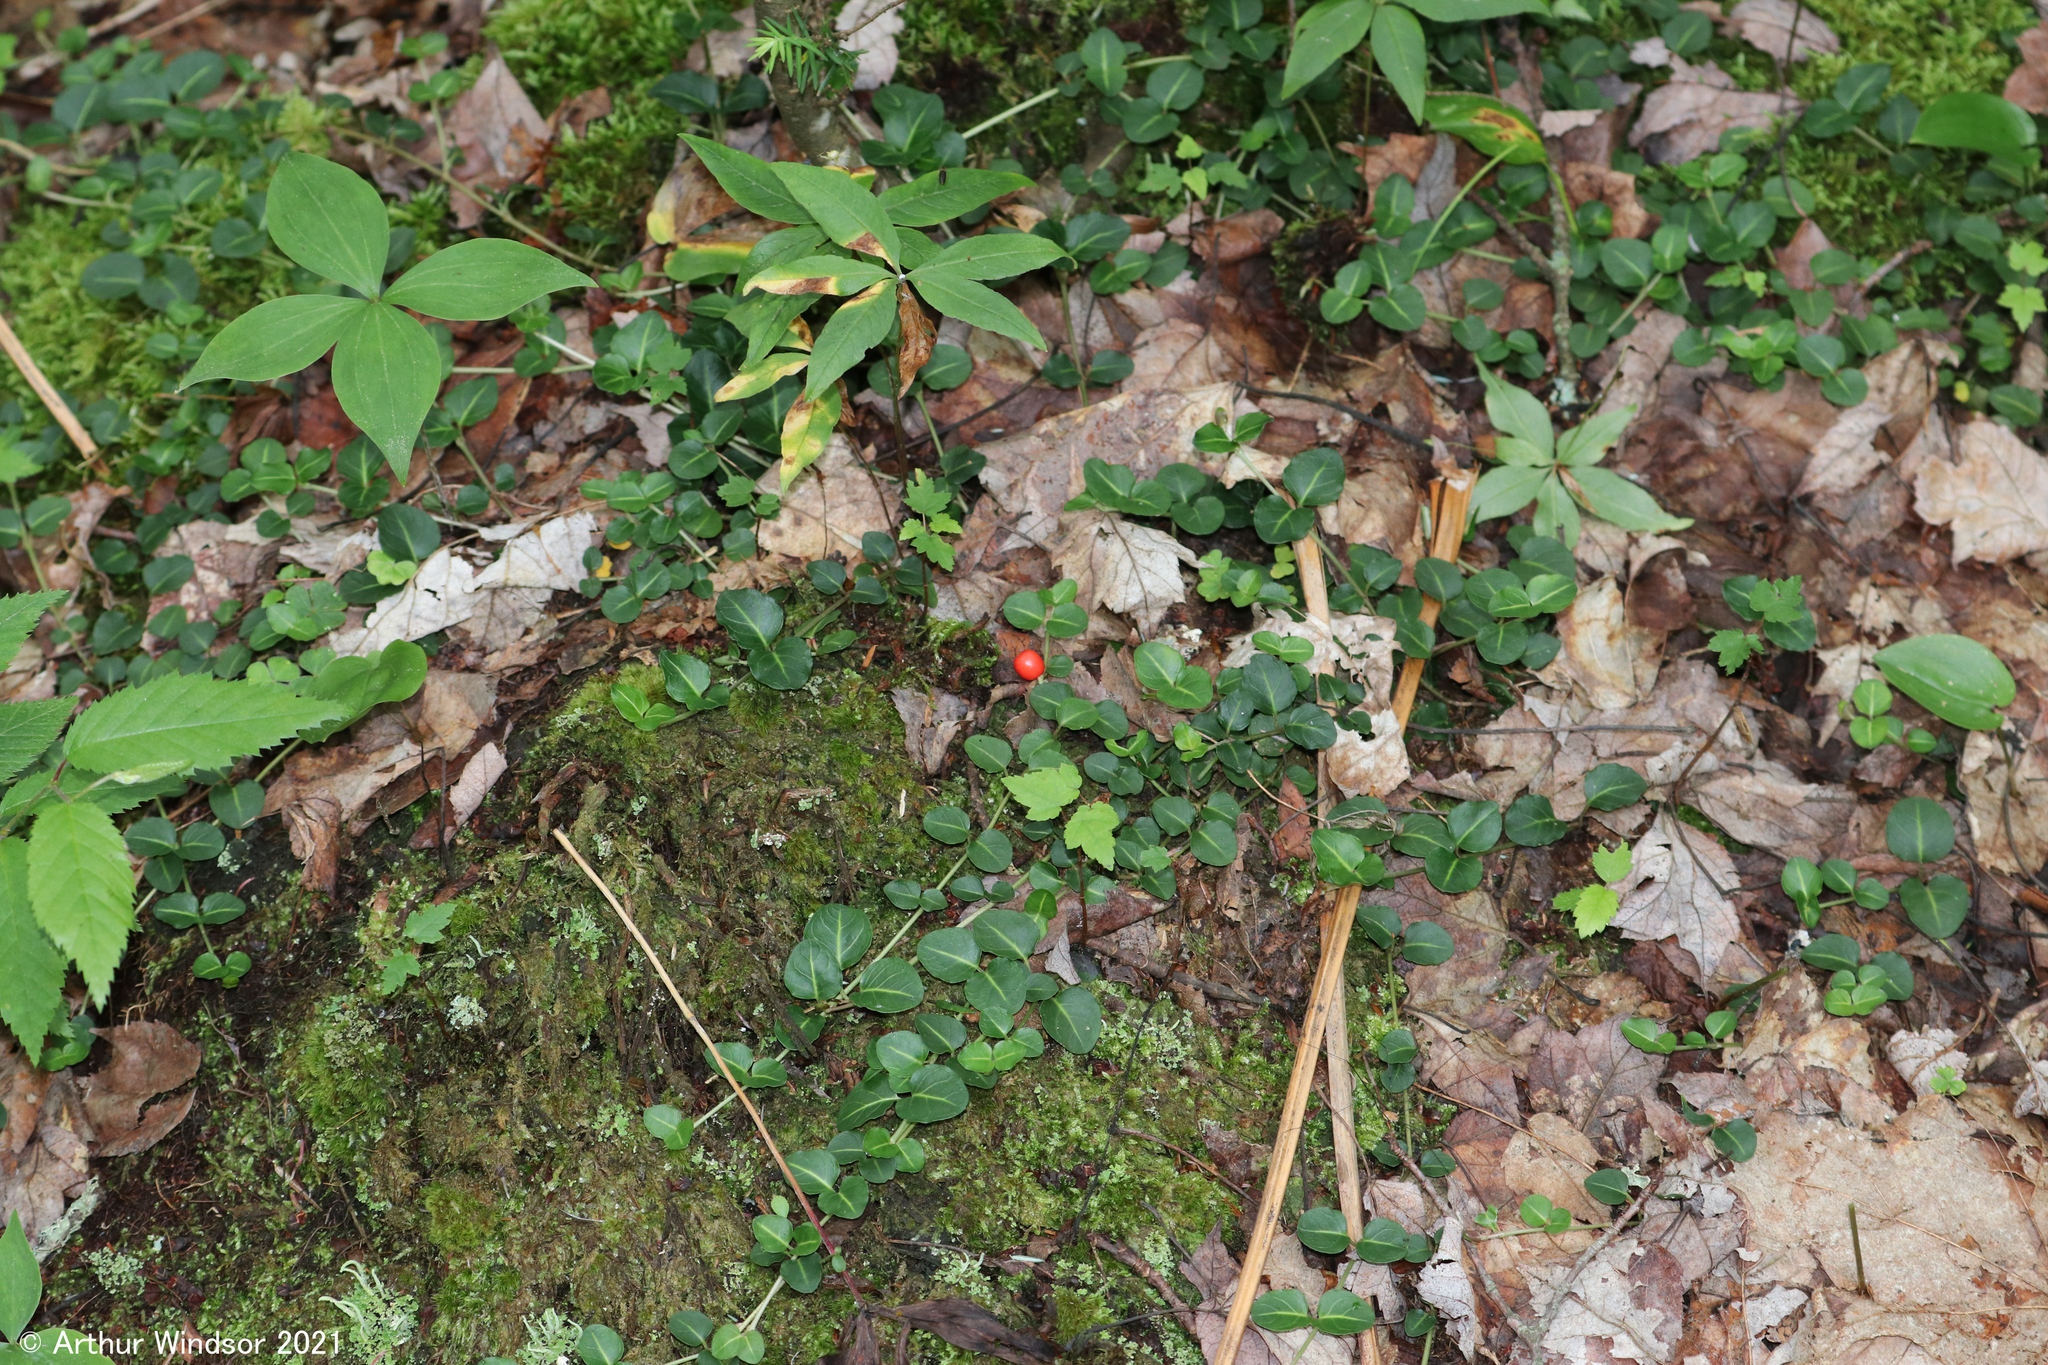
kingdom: Plantae
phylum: Tracheophyta
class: Magnoliopsida
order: Gentianales
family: Rubiaceae
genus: Mitchella
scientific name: Mitchella repens
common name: Partridge-berry
